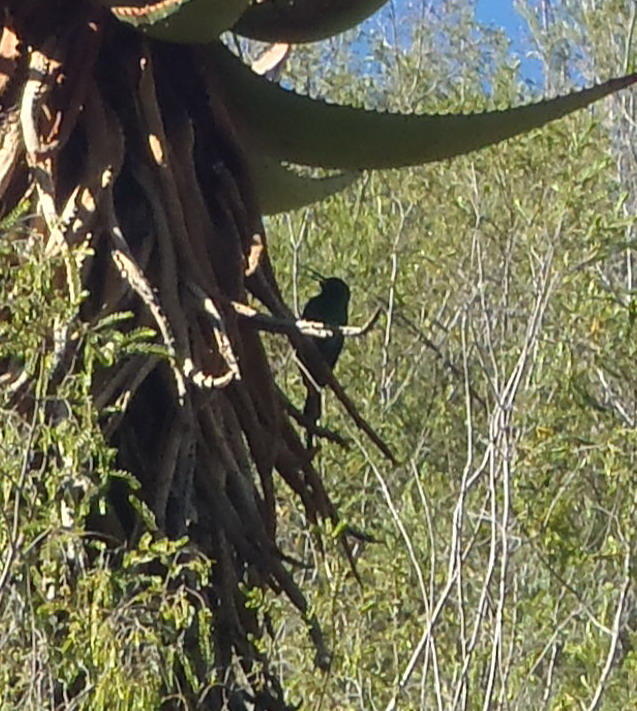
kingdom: Animalia
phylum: Chordata
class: Aves
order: Passeriformes
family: Nectariniidae
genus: Nectarinia
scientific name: Nectarinia famosa
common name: Malachite sunbird
